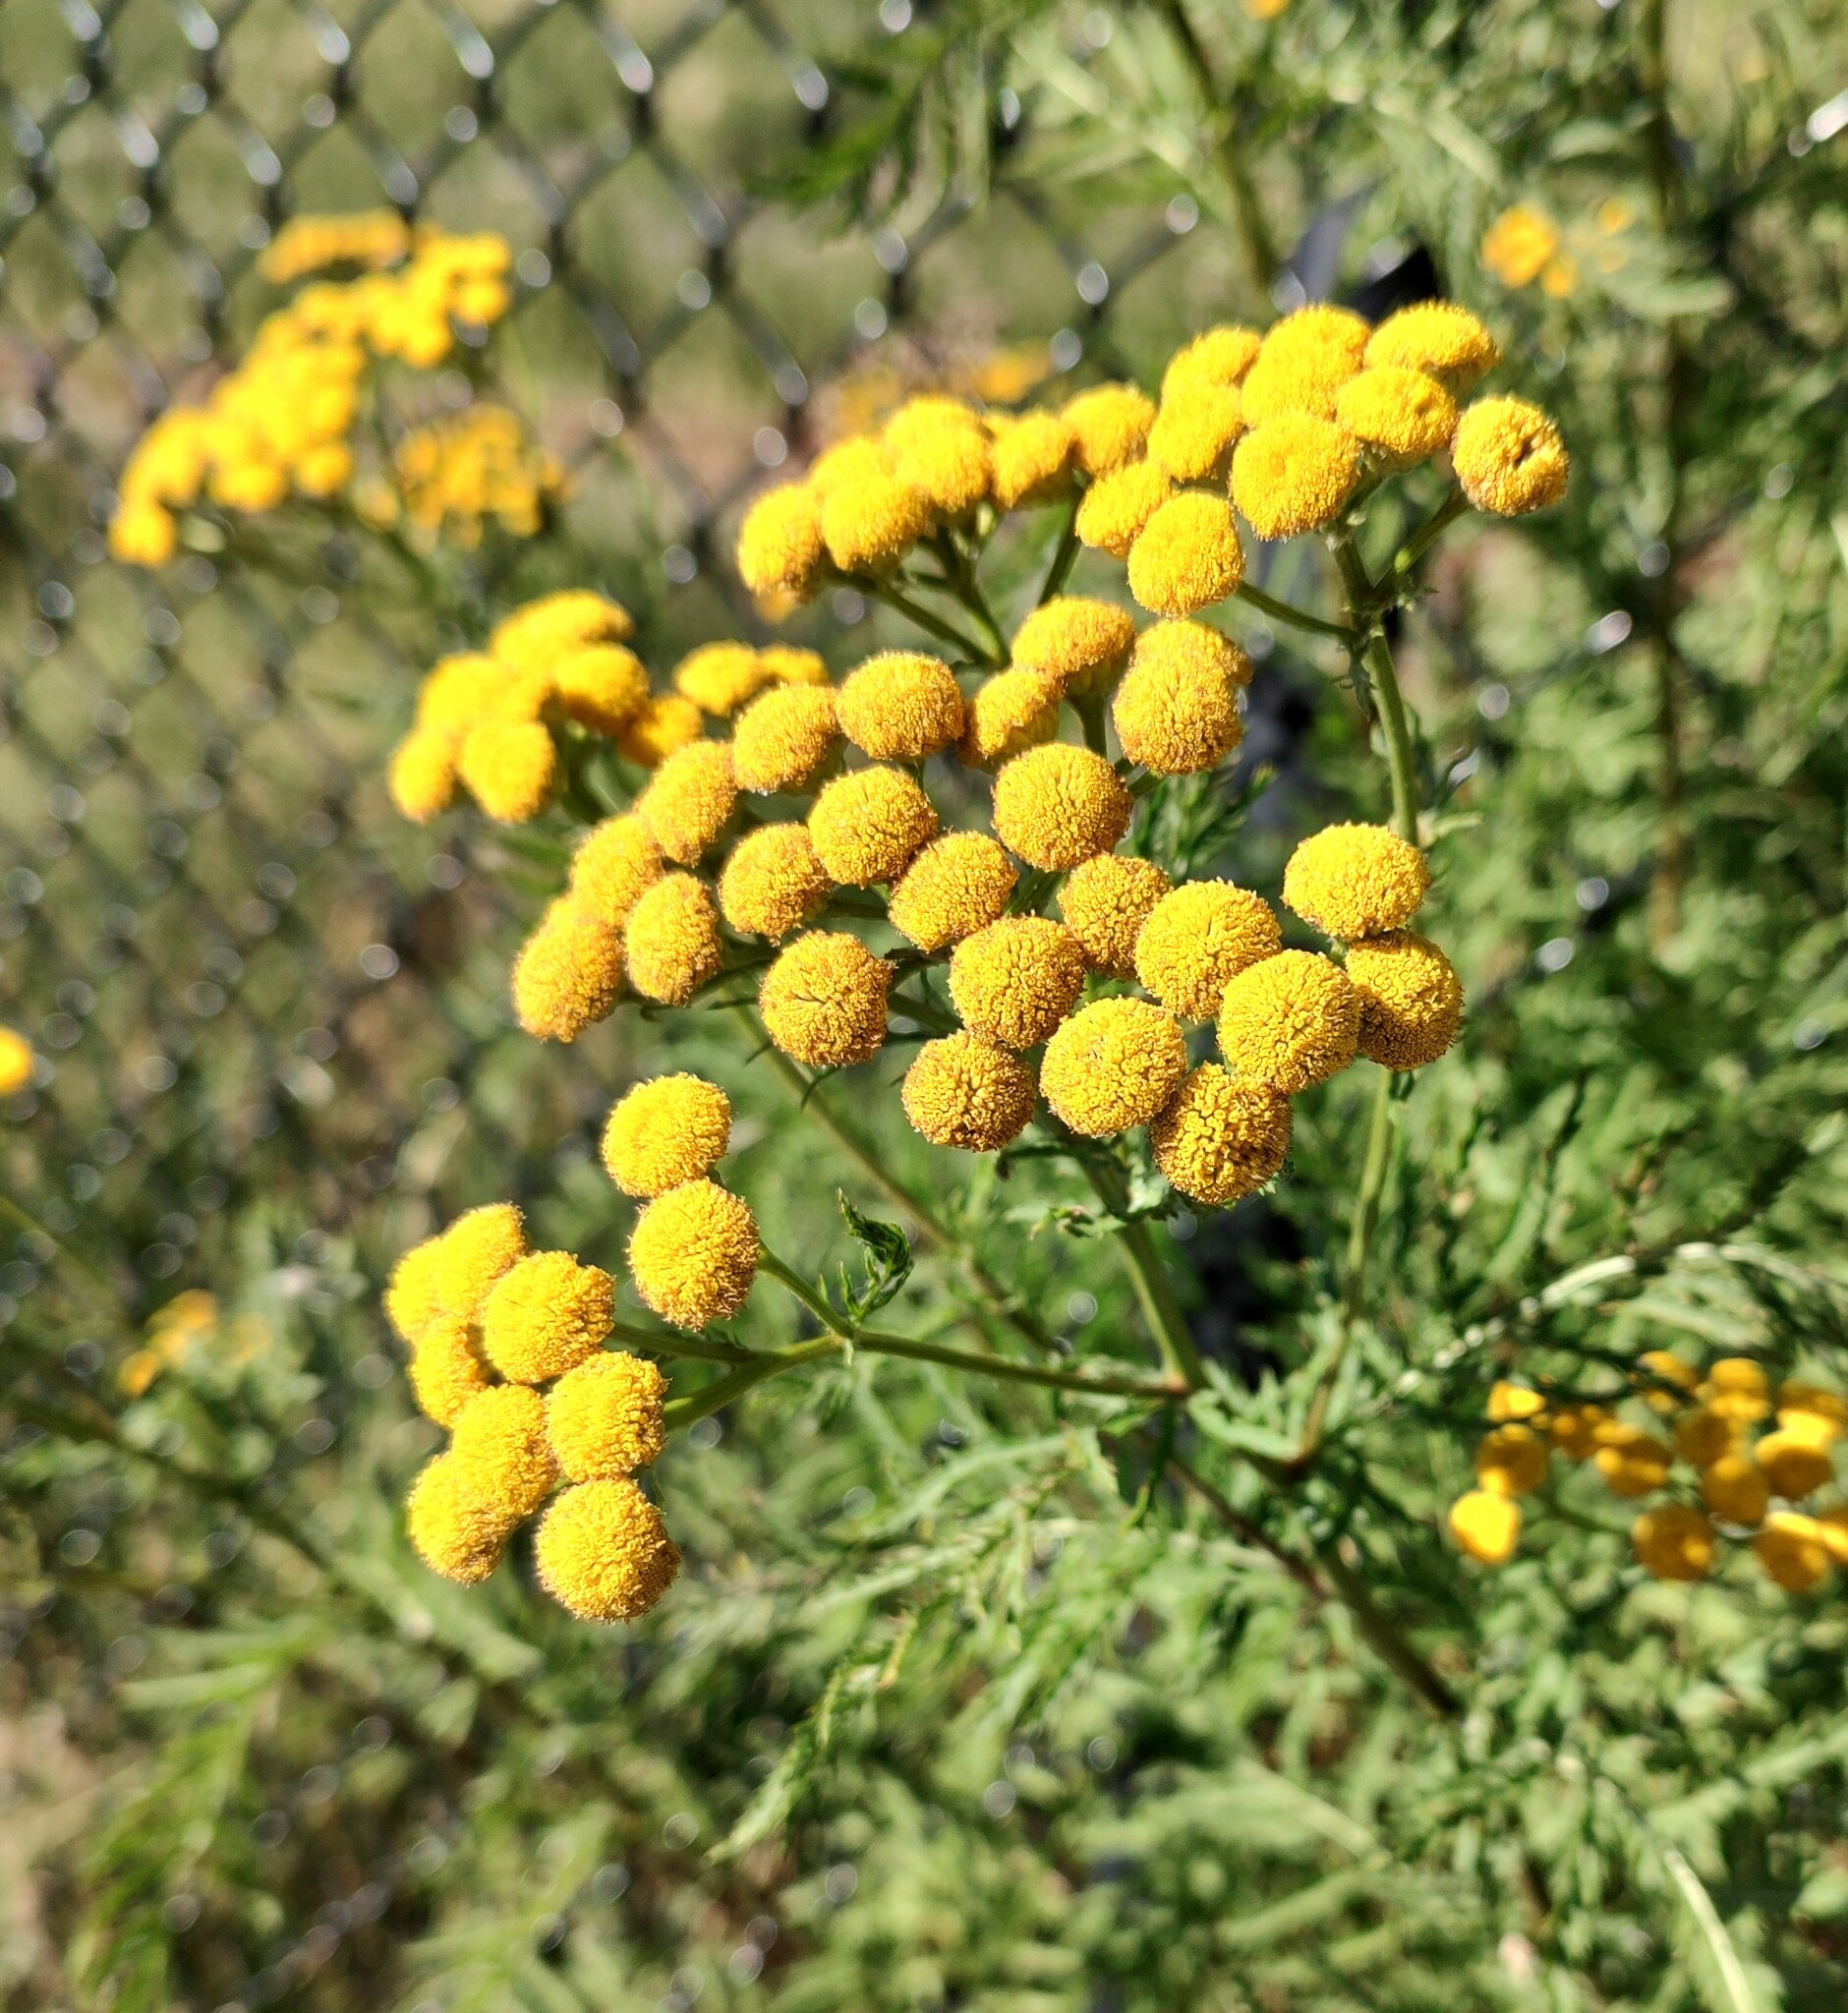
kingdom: Plantae
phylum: Tracheophyta
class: Magnoliopsida
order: Asterales
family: Asteraceae
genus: Tanacetum
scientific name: Tanacetum vulgare
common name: Common tansy
